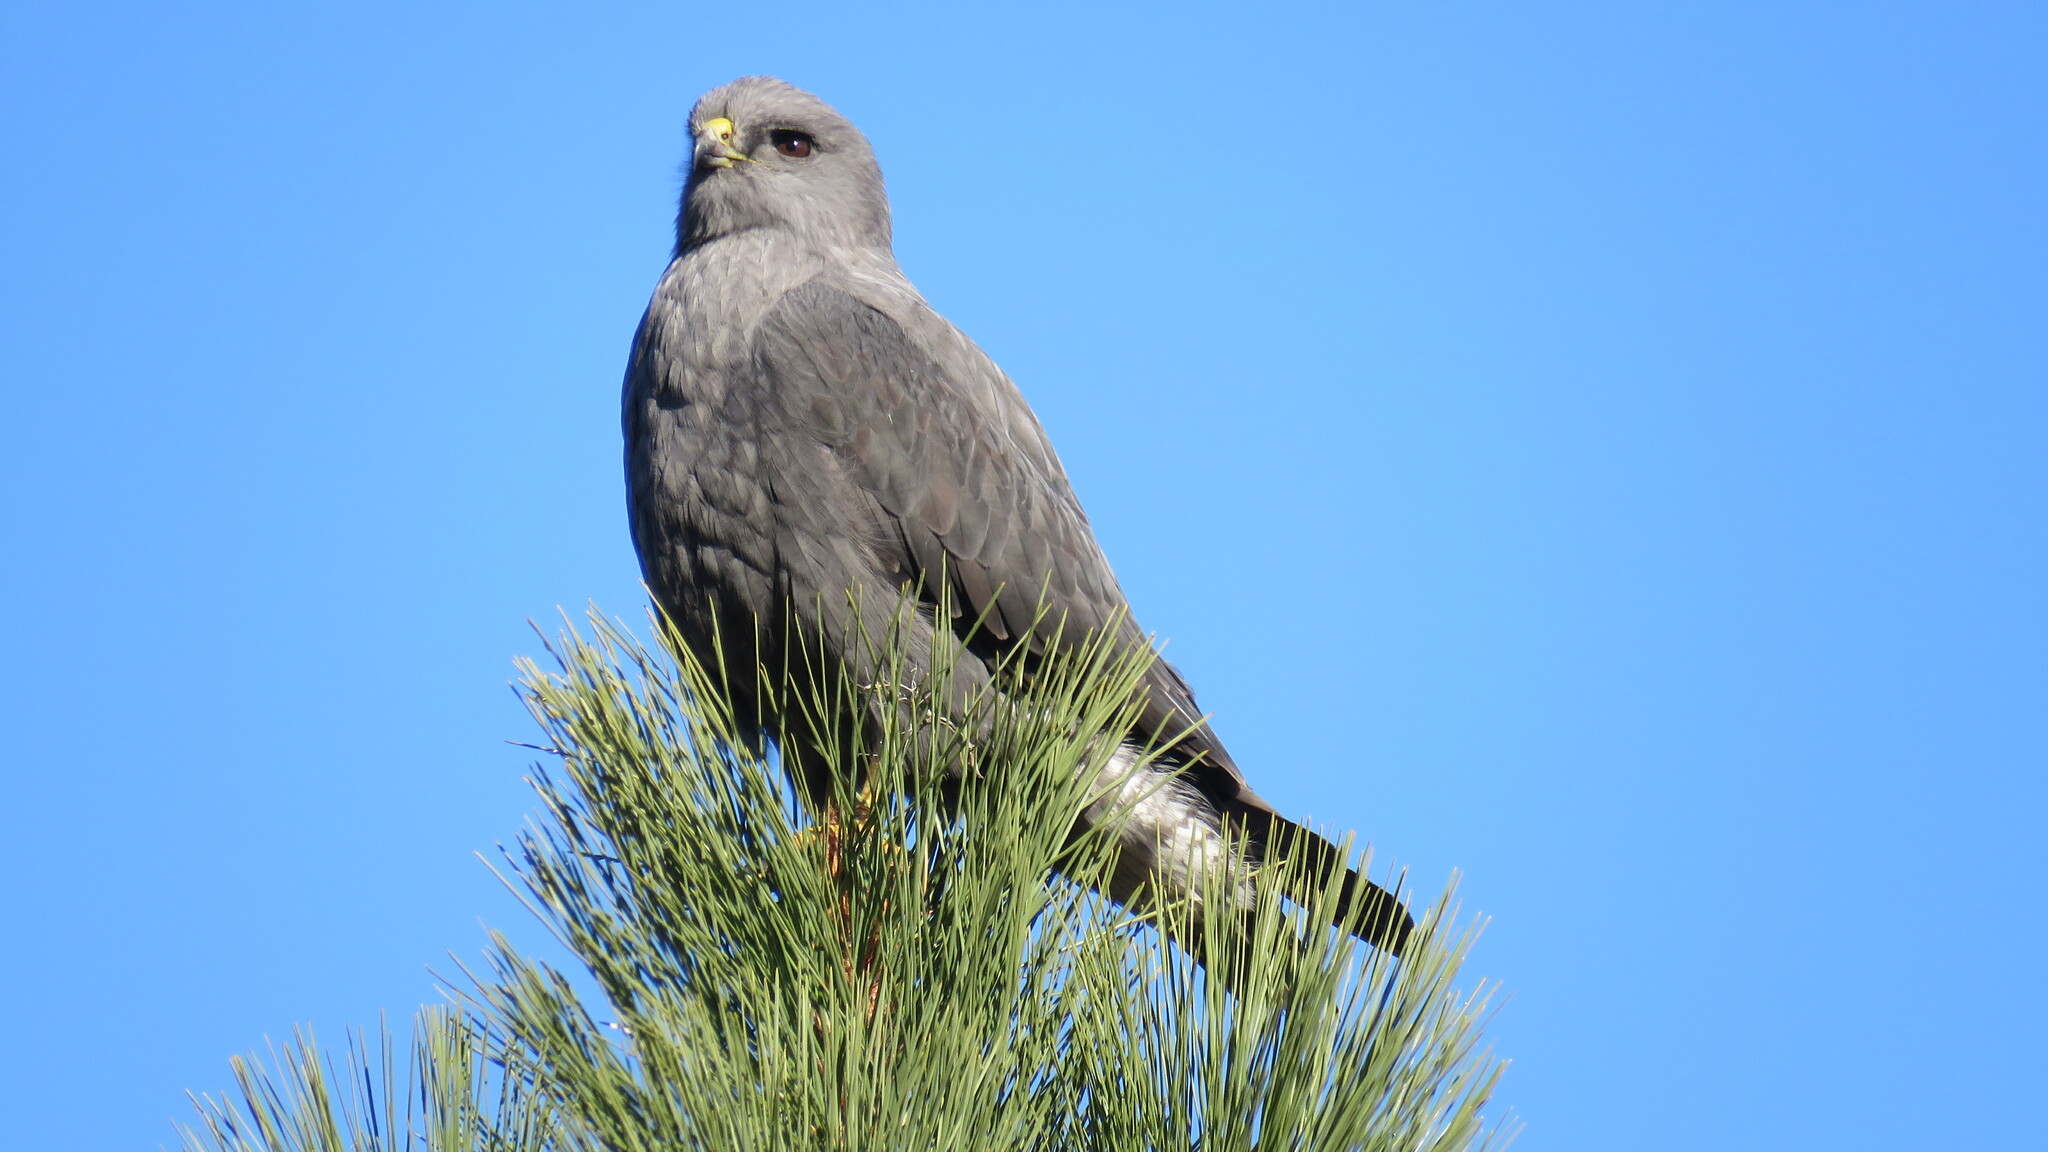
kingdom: Animalia
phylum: Chordata
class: Aves
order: Accipitriformes
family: Accipitridae
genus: Buteo
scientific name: Buteo polyosoma
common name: Variable hawk
